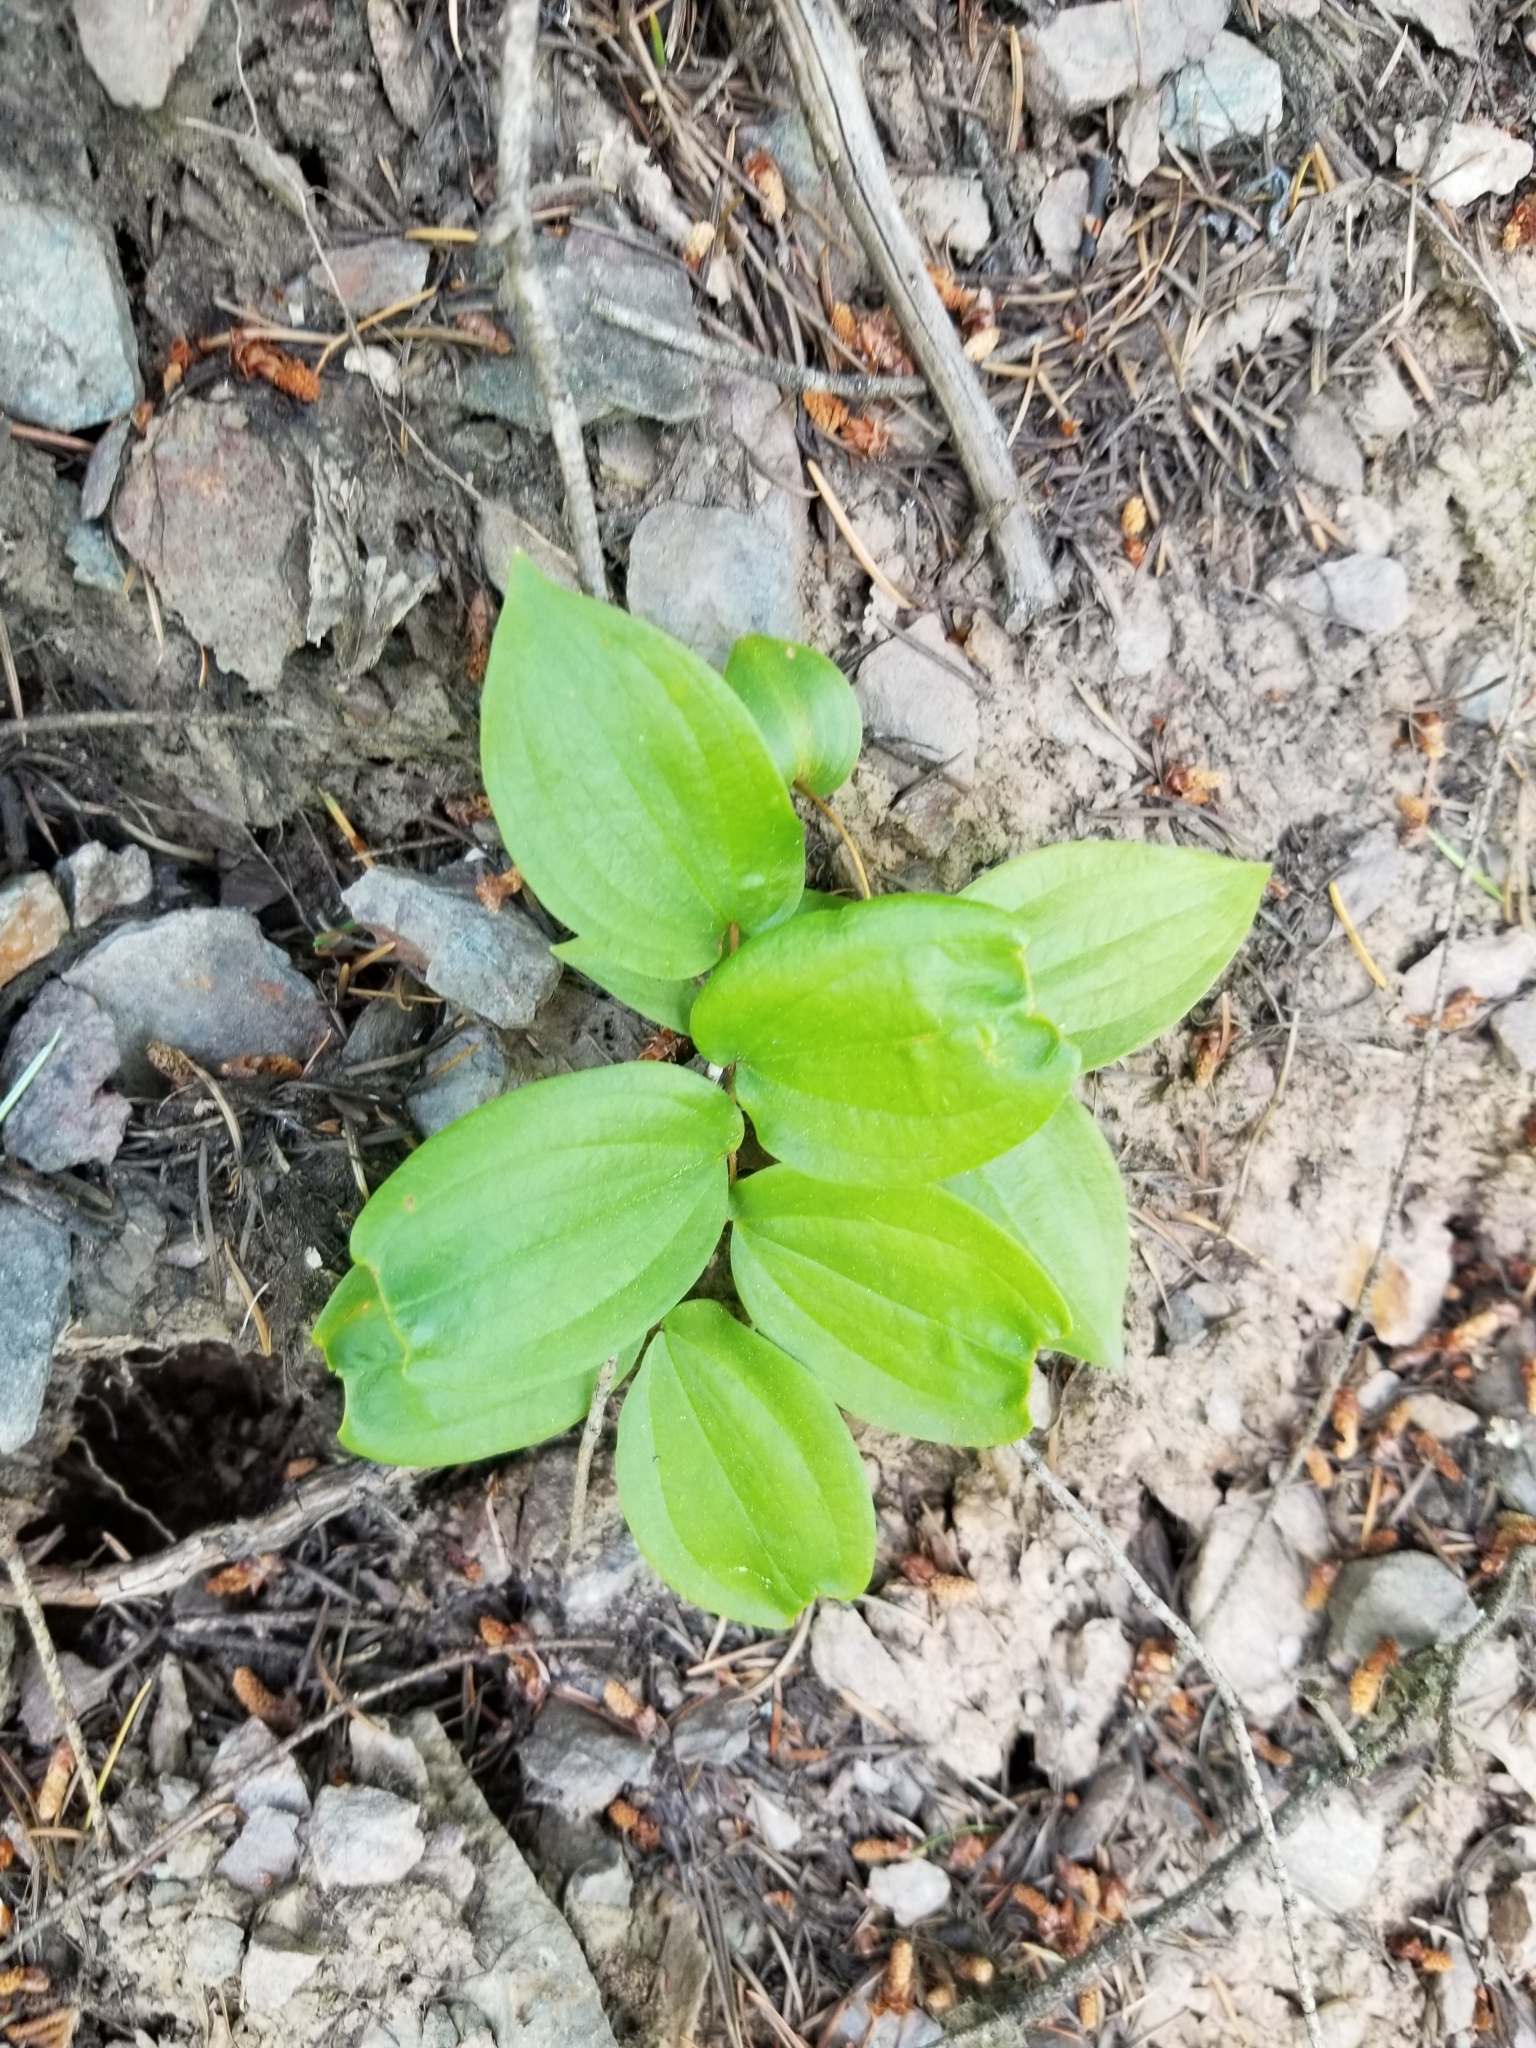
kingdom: Plantae
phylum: Tracheophyta
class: Liliopsida
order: Liliales
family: Liliaceae
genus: Prosartes
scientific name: Prosartes trachycarpa
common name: Rough-fruit fairy-bells
